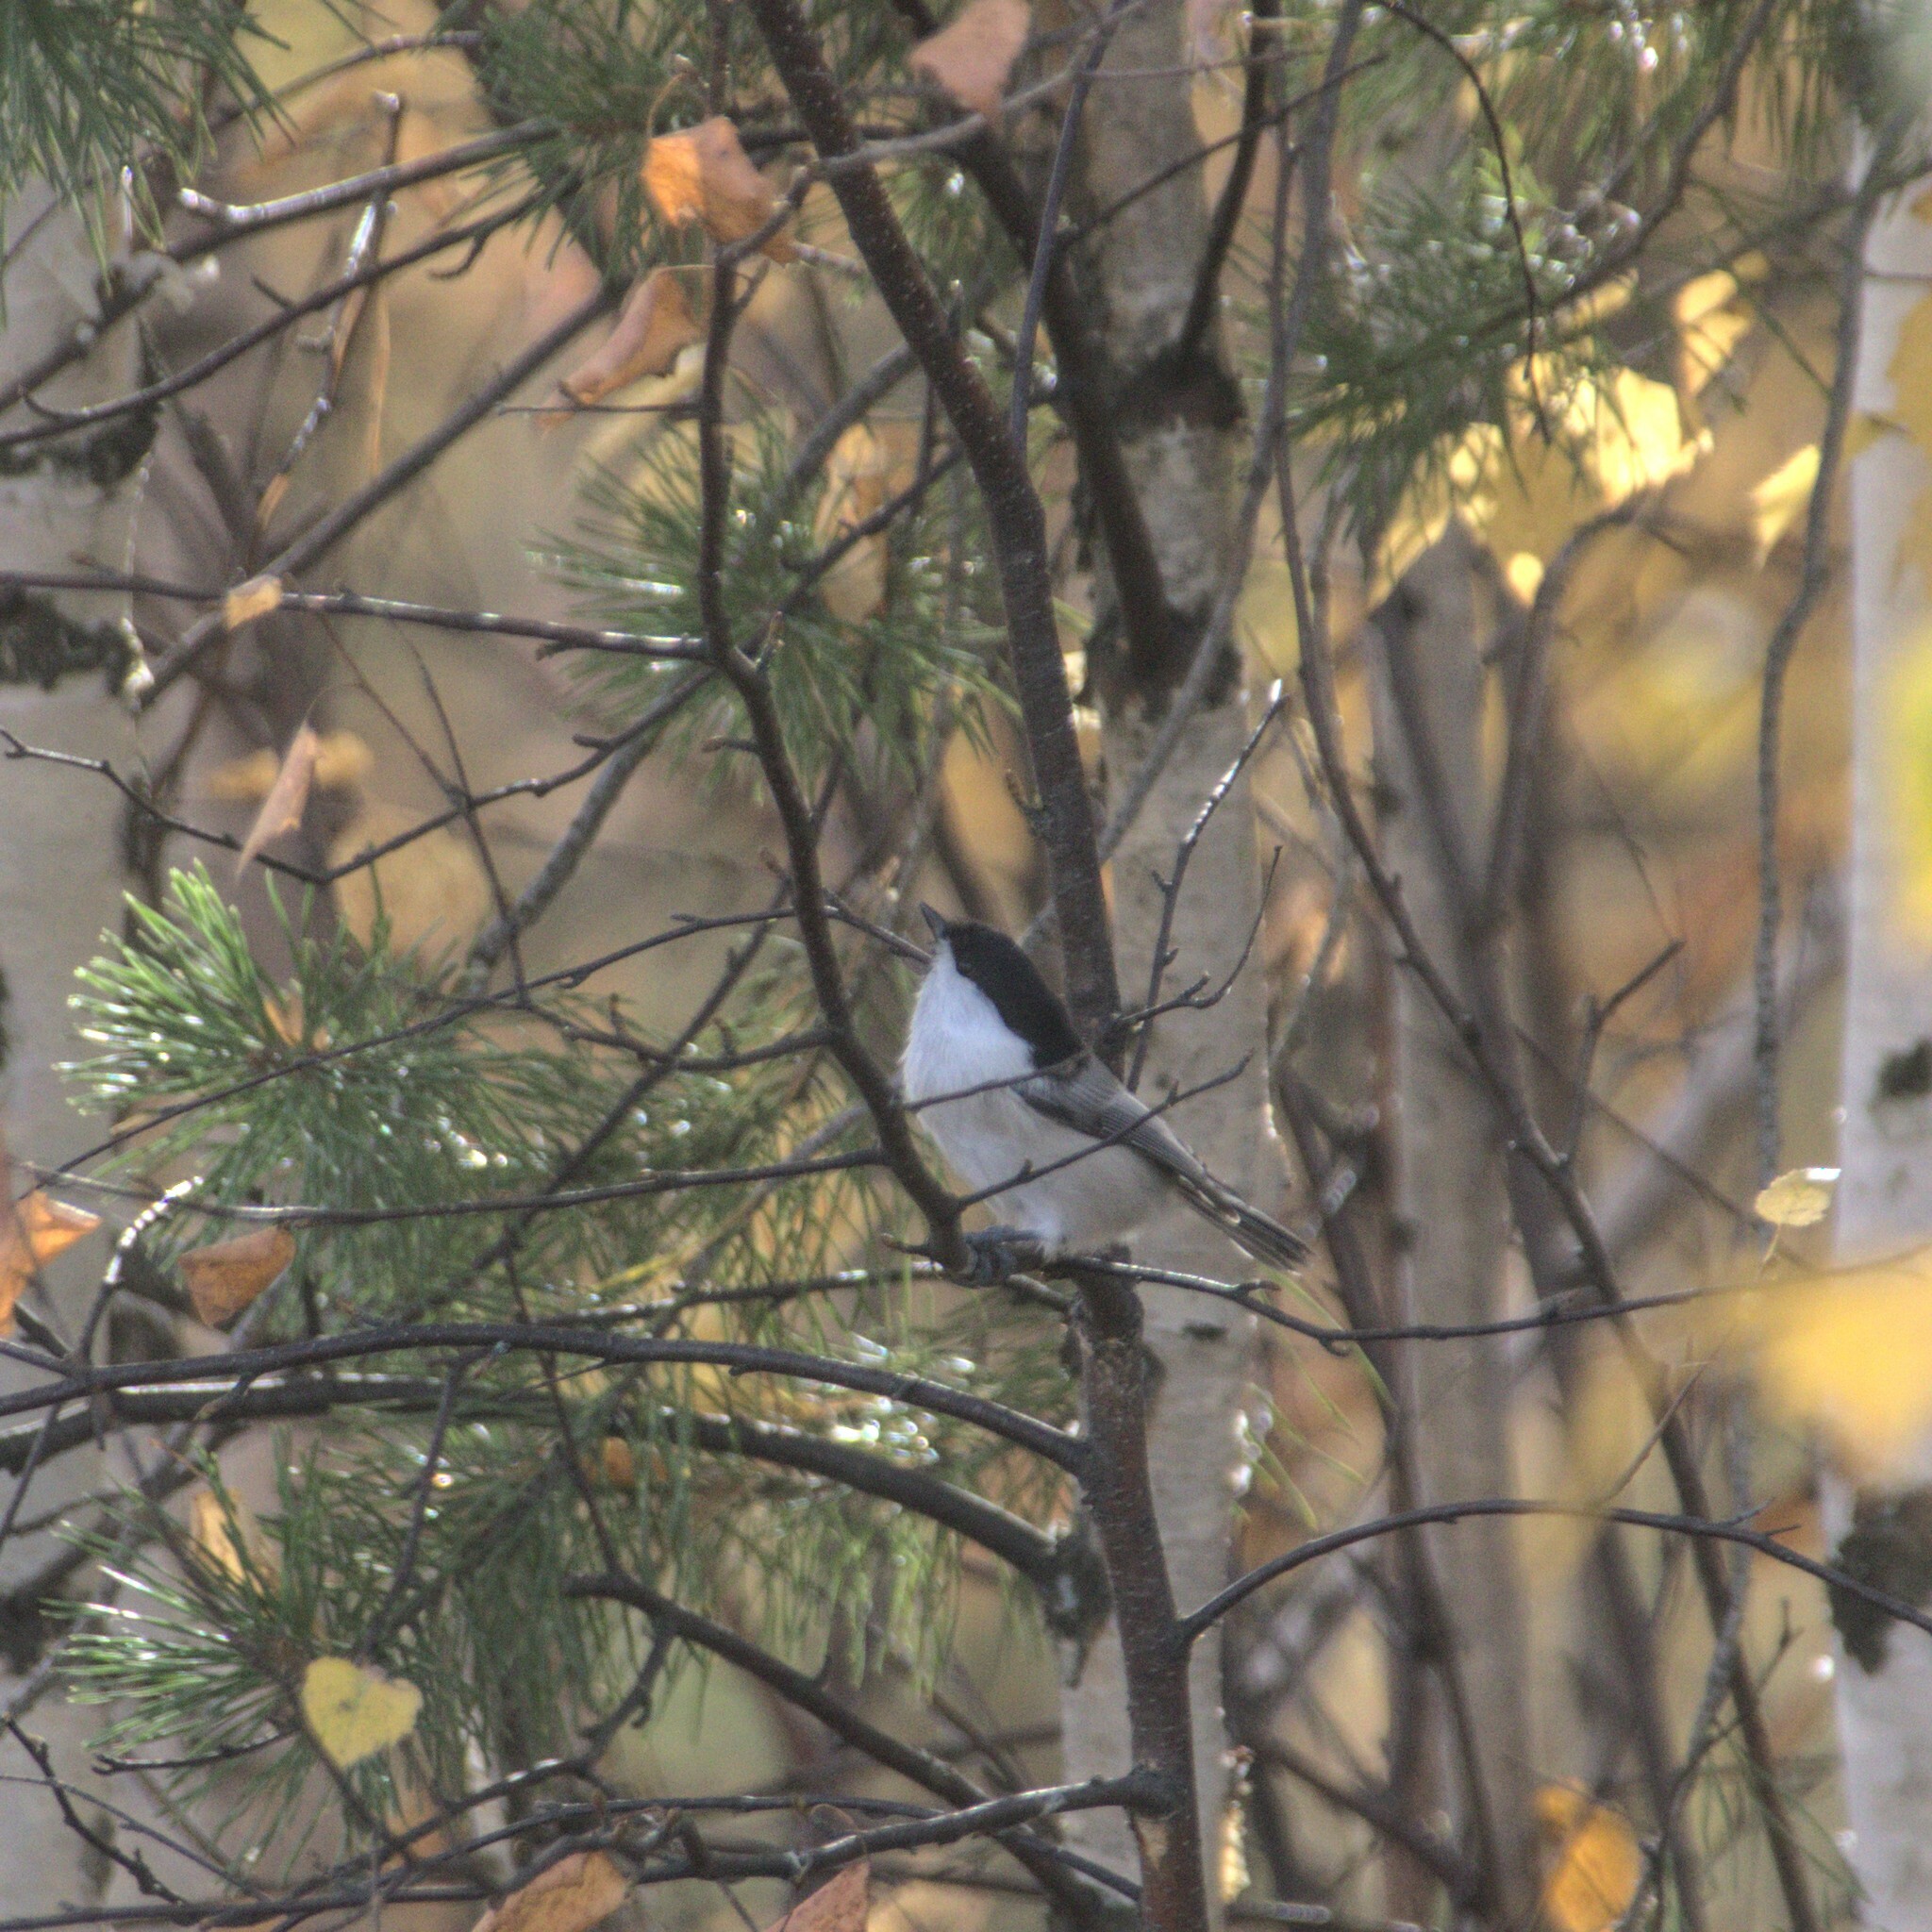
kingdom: Animalia
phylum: Chordata
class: Aves
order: Passeriformes
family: Paridae
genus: Poecile
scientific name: Poecile montanus
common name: Willow tit
